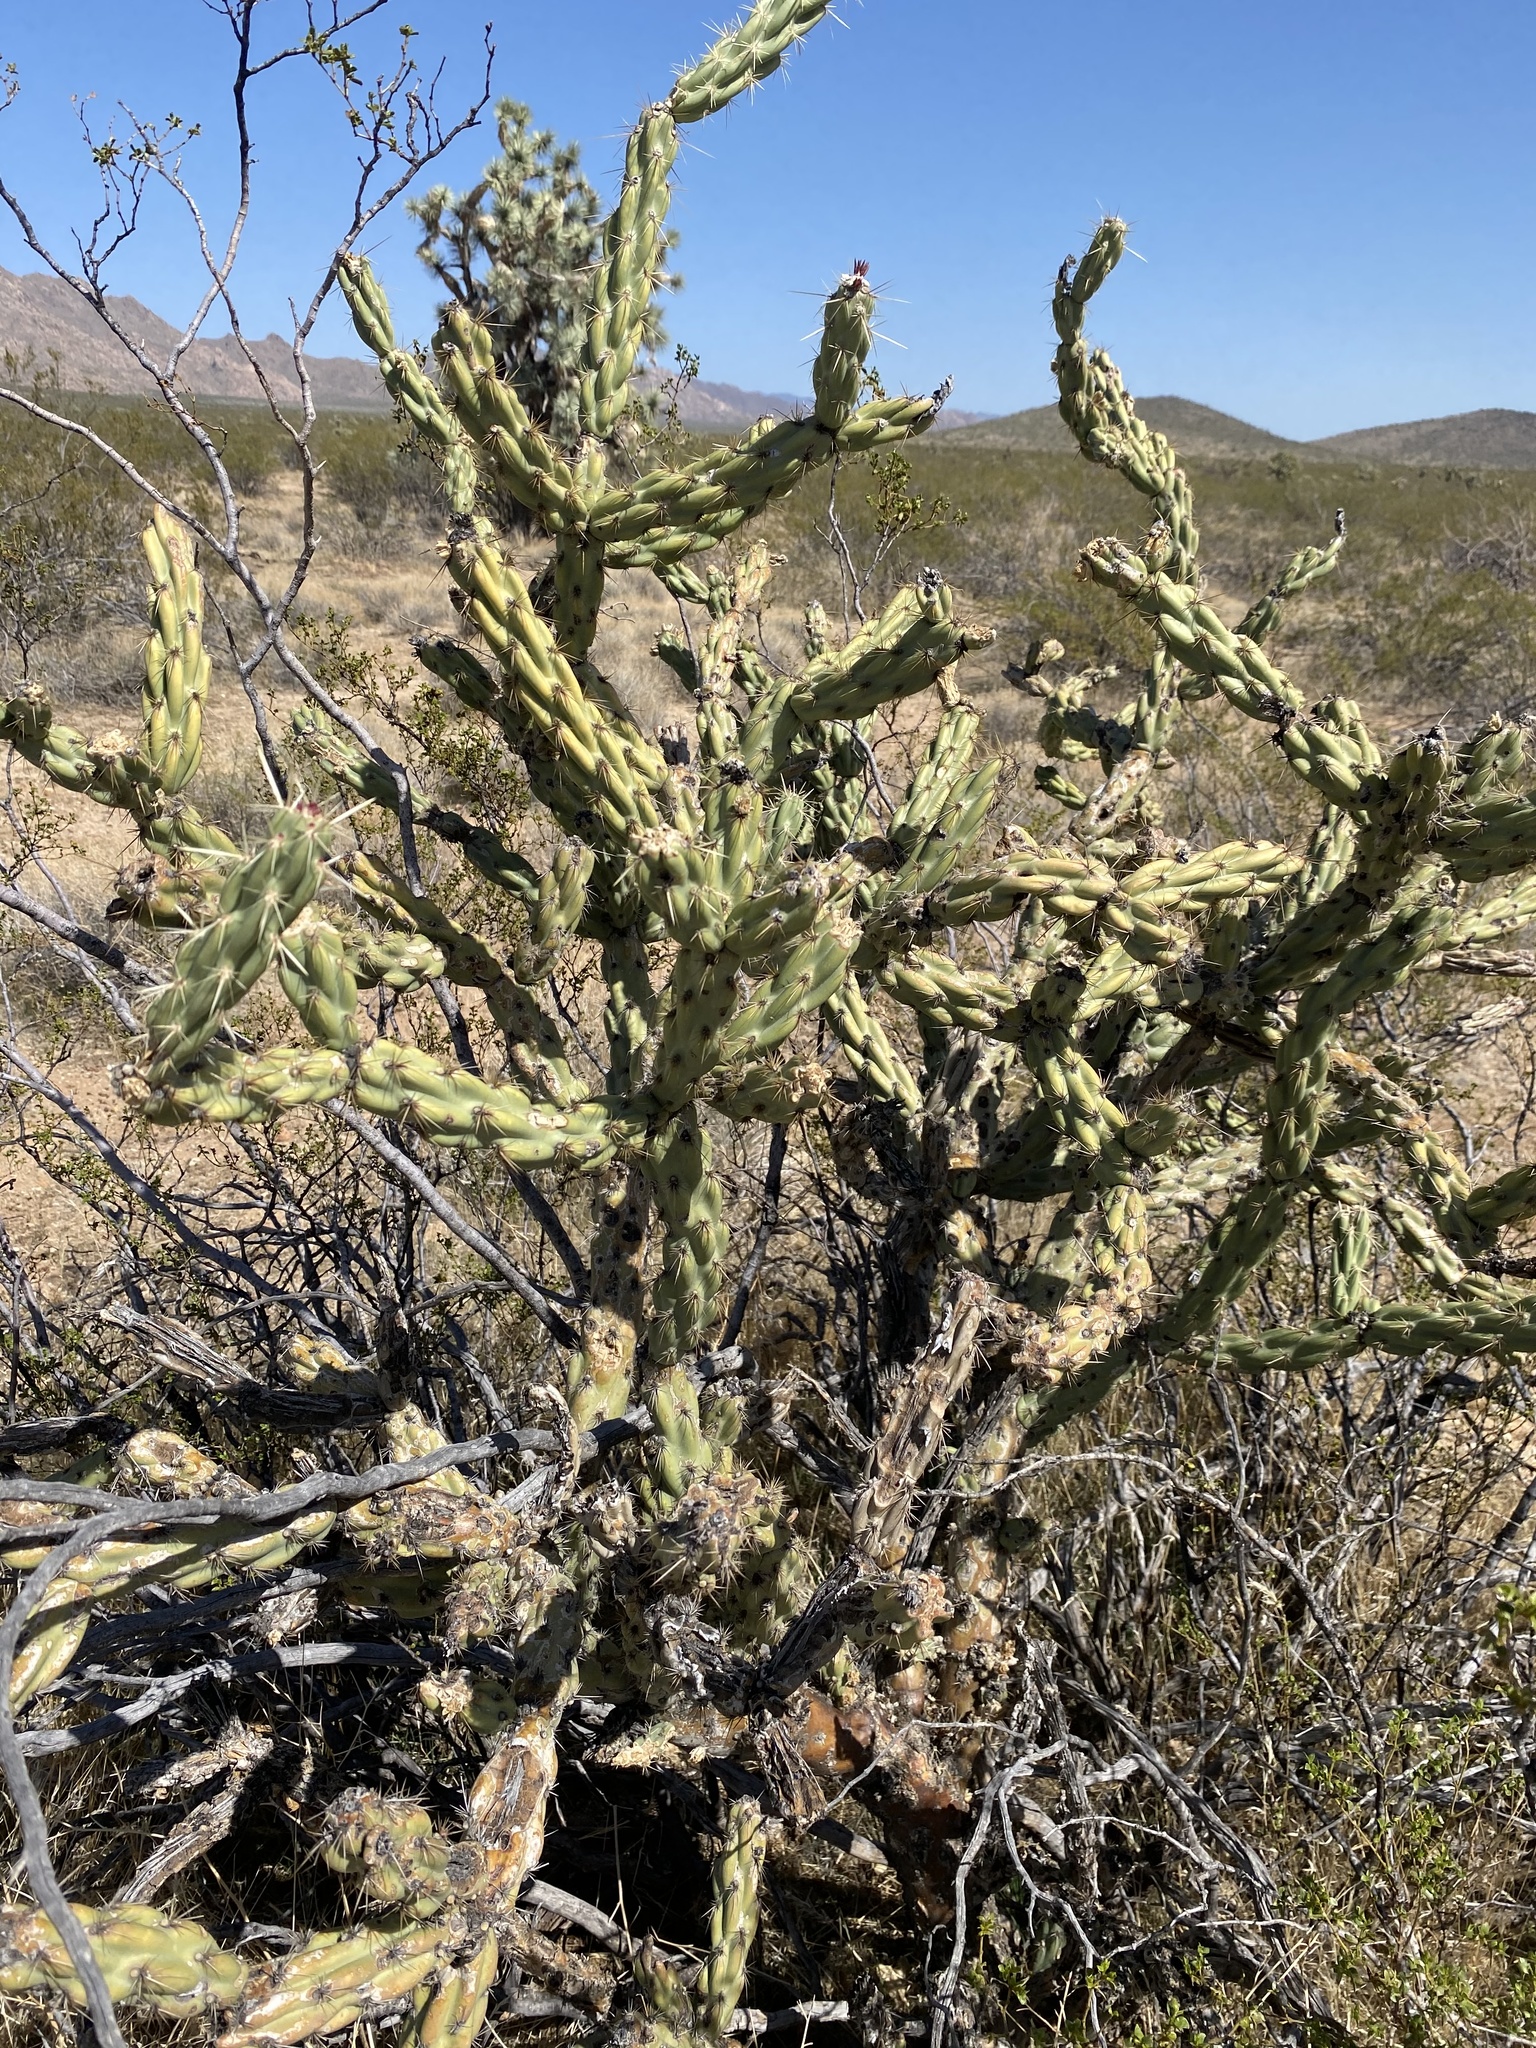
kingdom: Plantae
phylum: Tracheophyta
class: Magnoliopsida
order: Caryophyllales
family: Cactaceae
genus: Cylindropuntia
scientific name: Cylindropuntia acanthocarpa
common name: Buckhorn cholla
